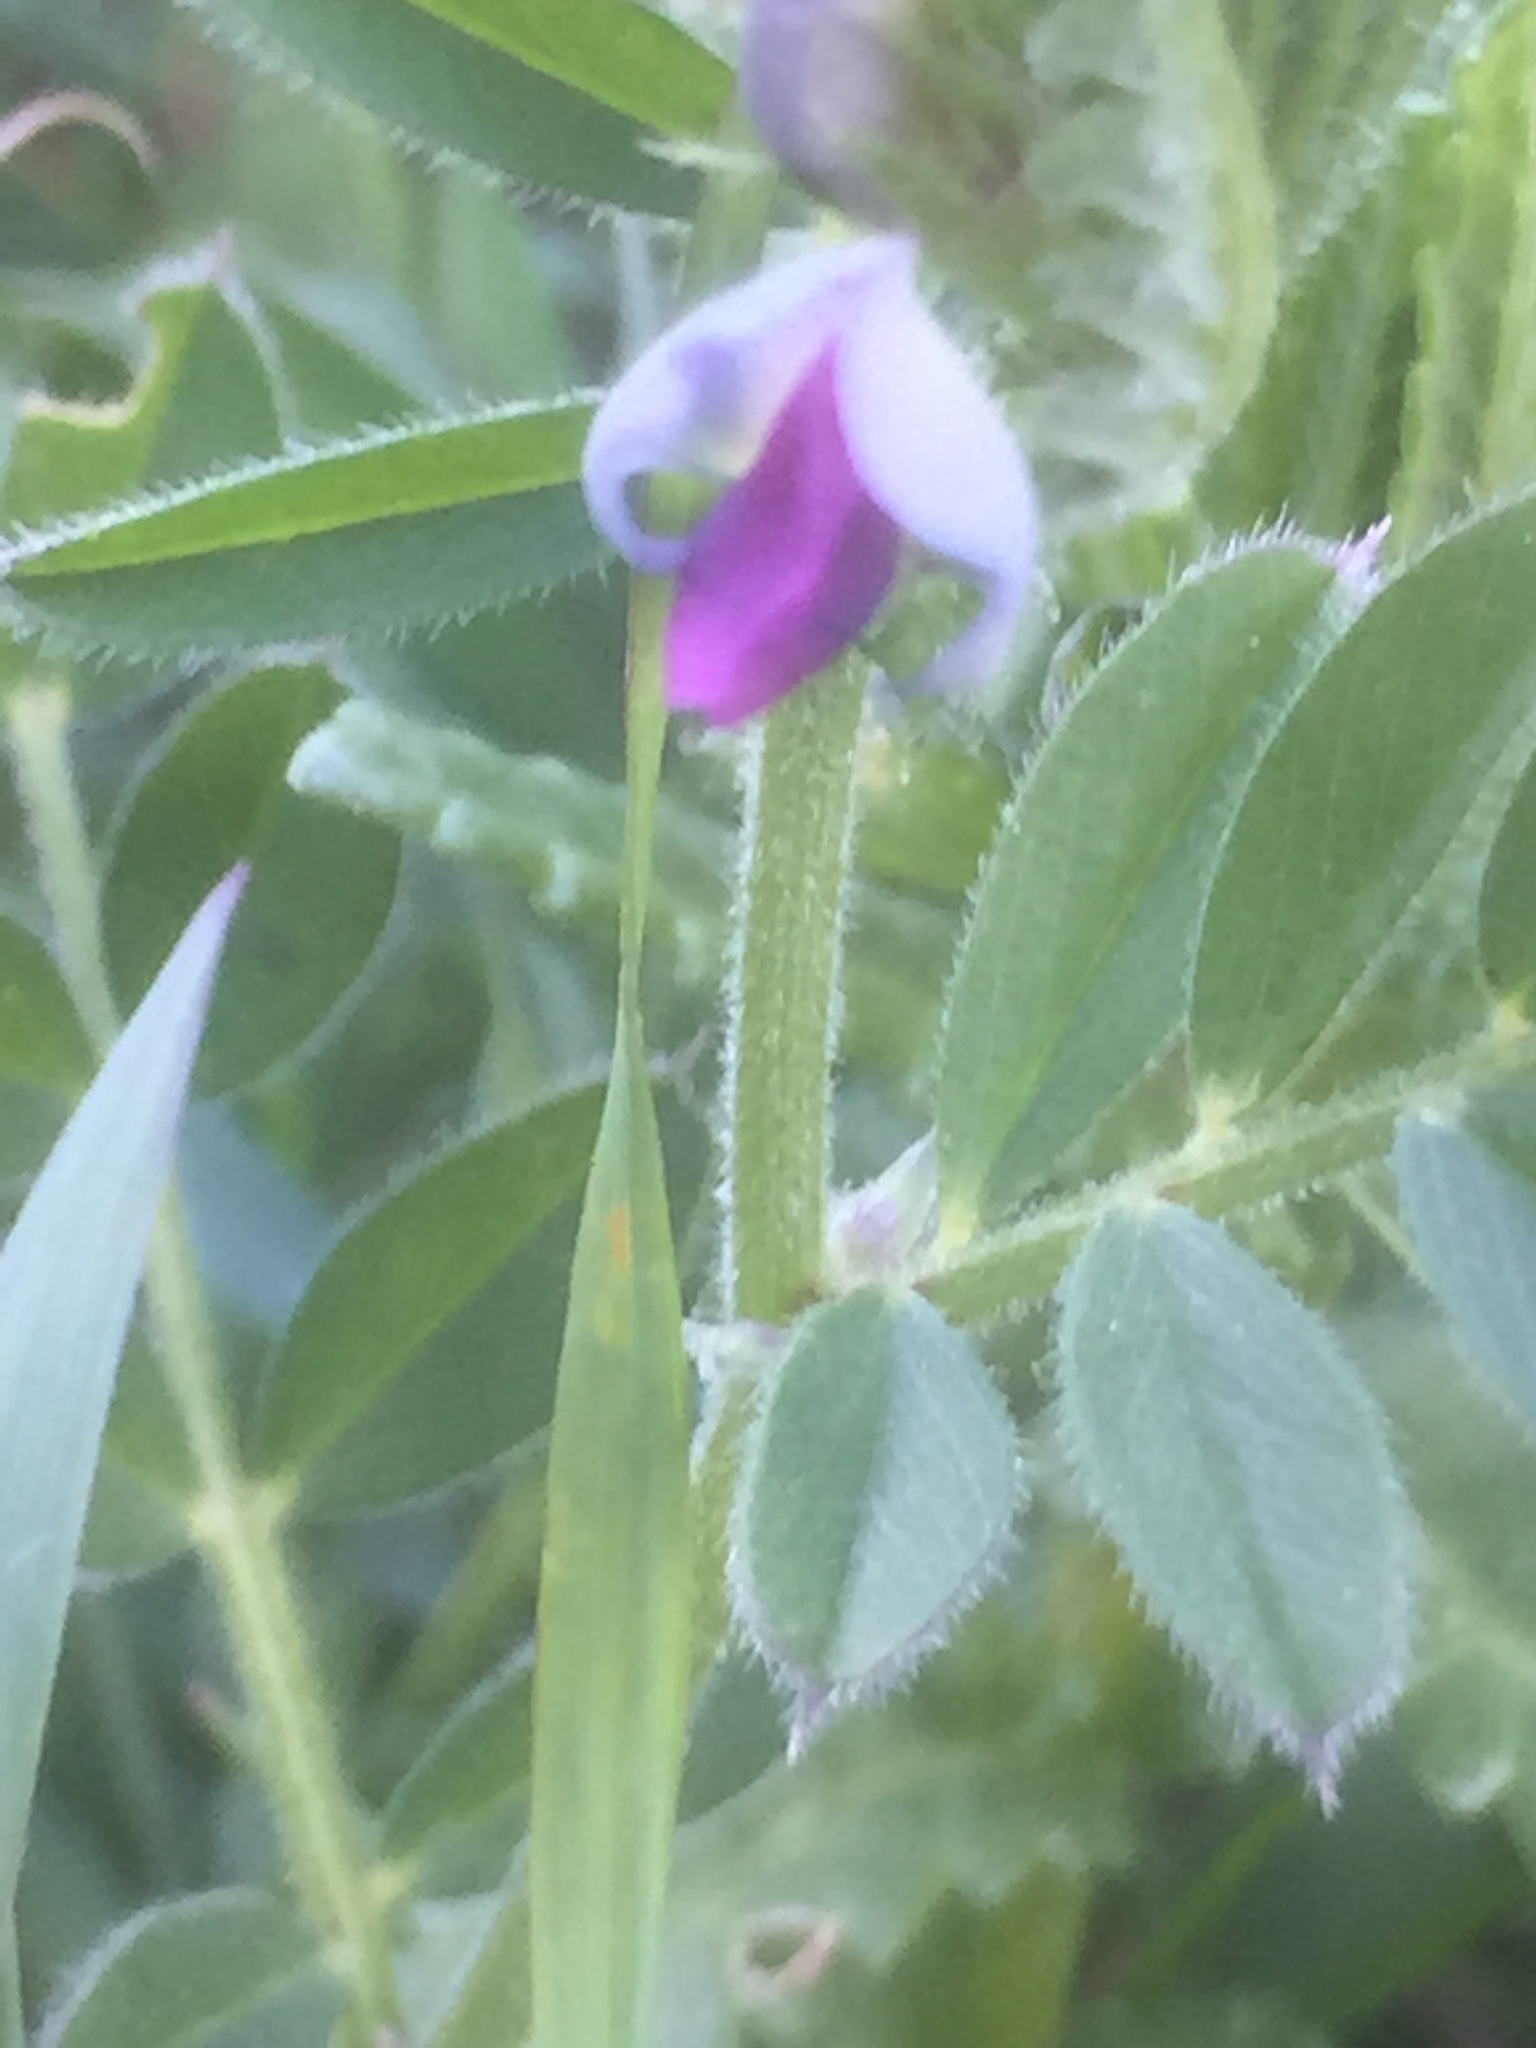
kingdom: Plantae
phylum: Tracheophyta
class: Magnoliopsida
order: Fabales
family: Fabaceae
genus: Vicia
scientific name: Vicia sepium
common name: Bush vetch
